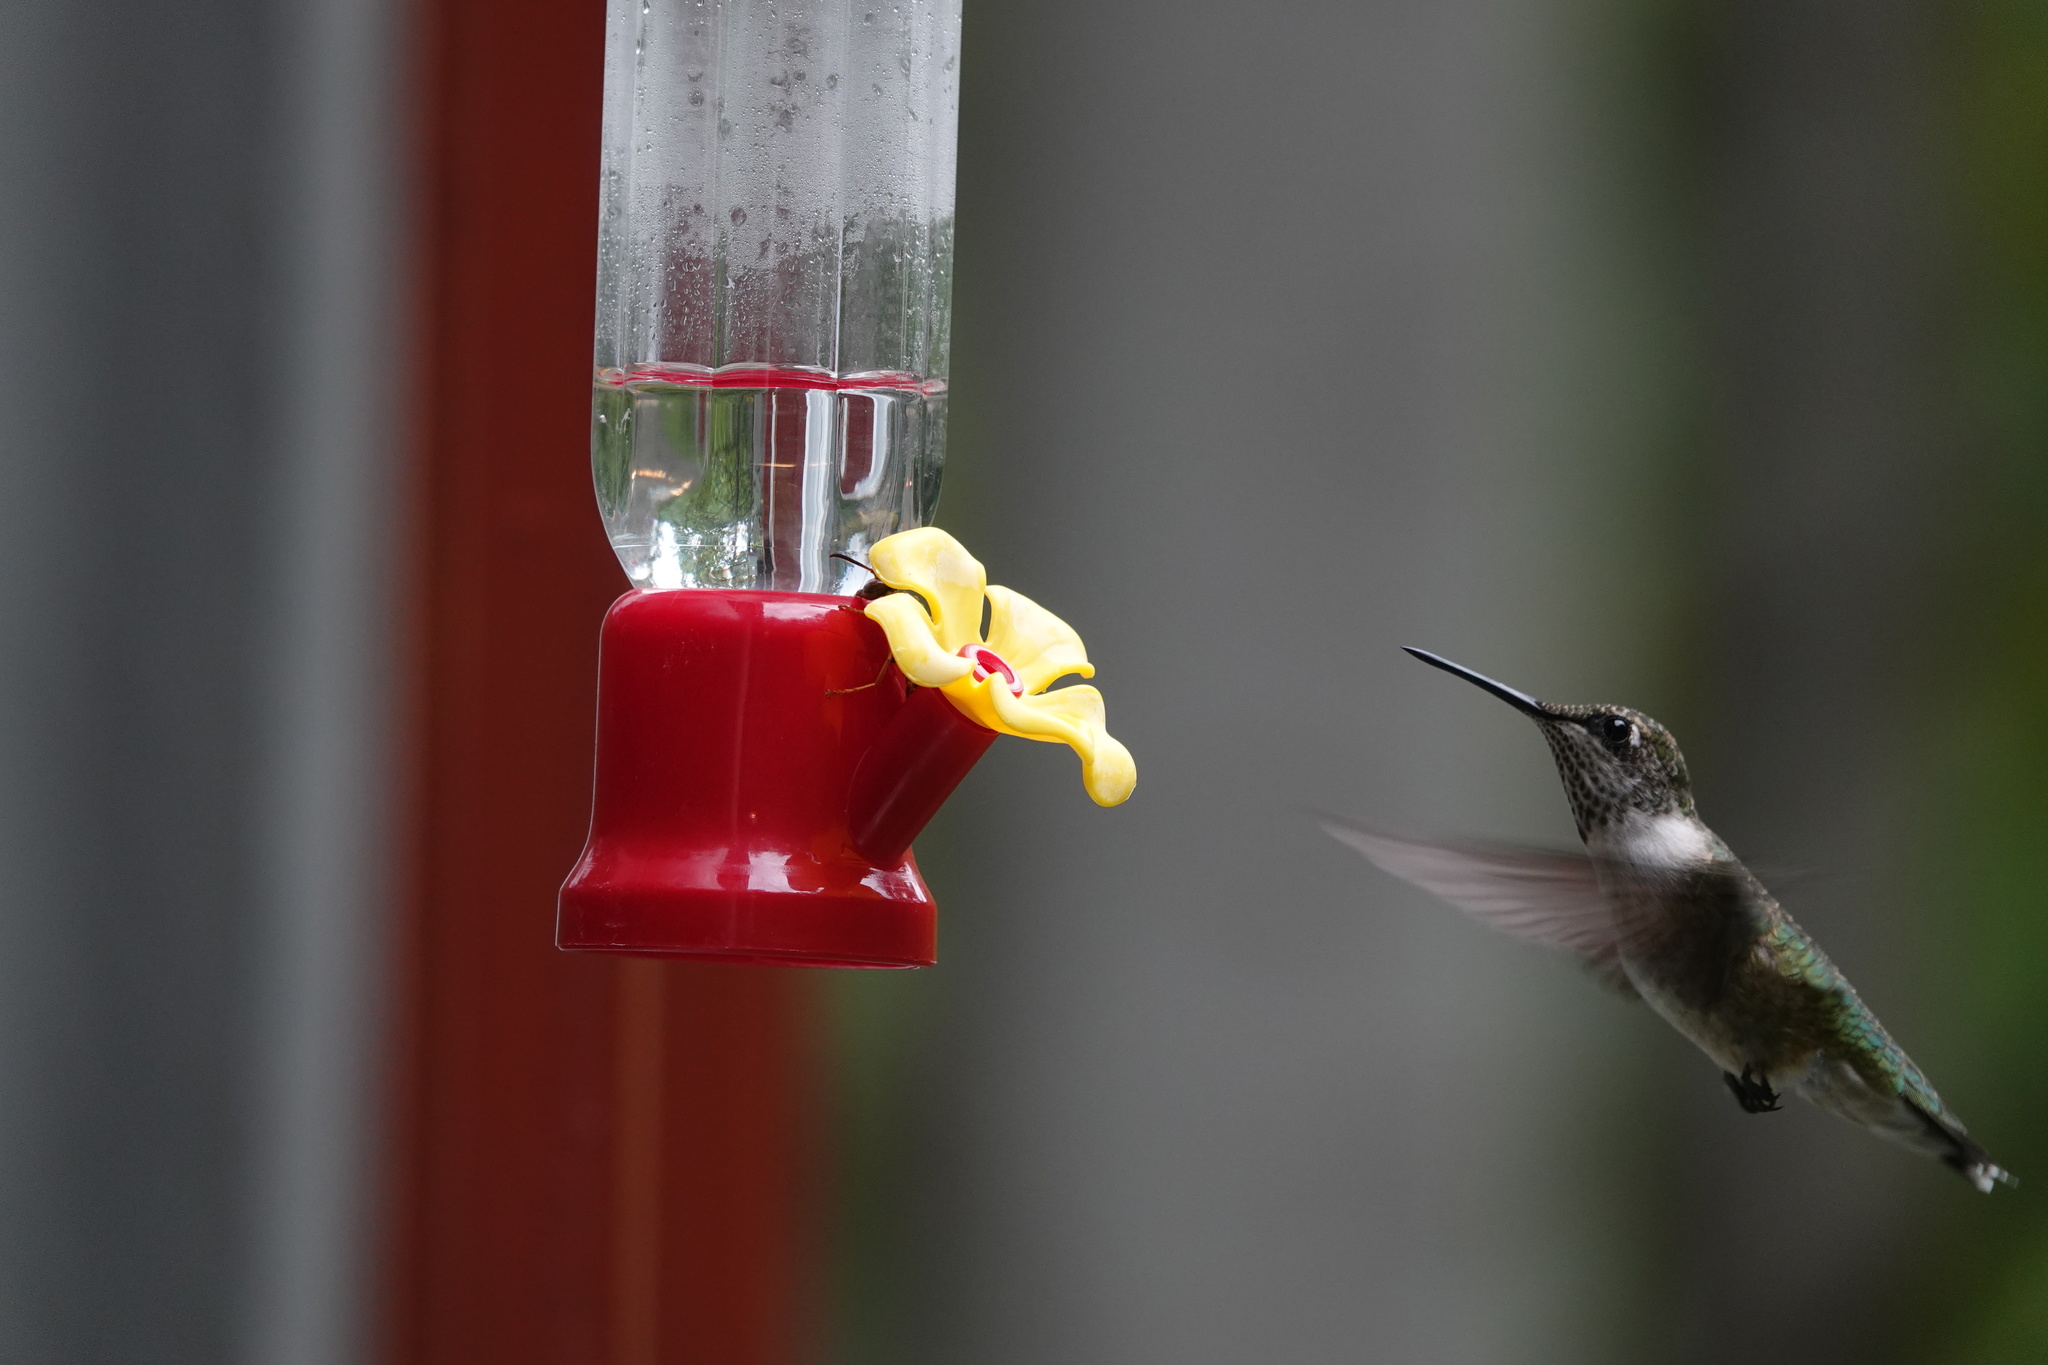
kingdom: Animalia
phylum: Chordata
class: Aves
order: Apodiformes
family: Trochilidae
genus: Archilochus
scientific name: Archilochus colubris
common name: Ruby-throated hummingbird
